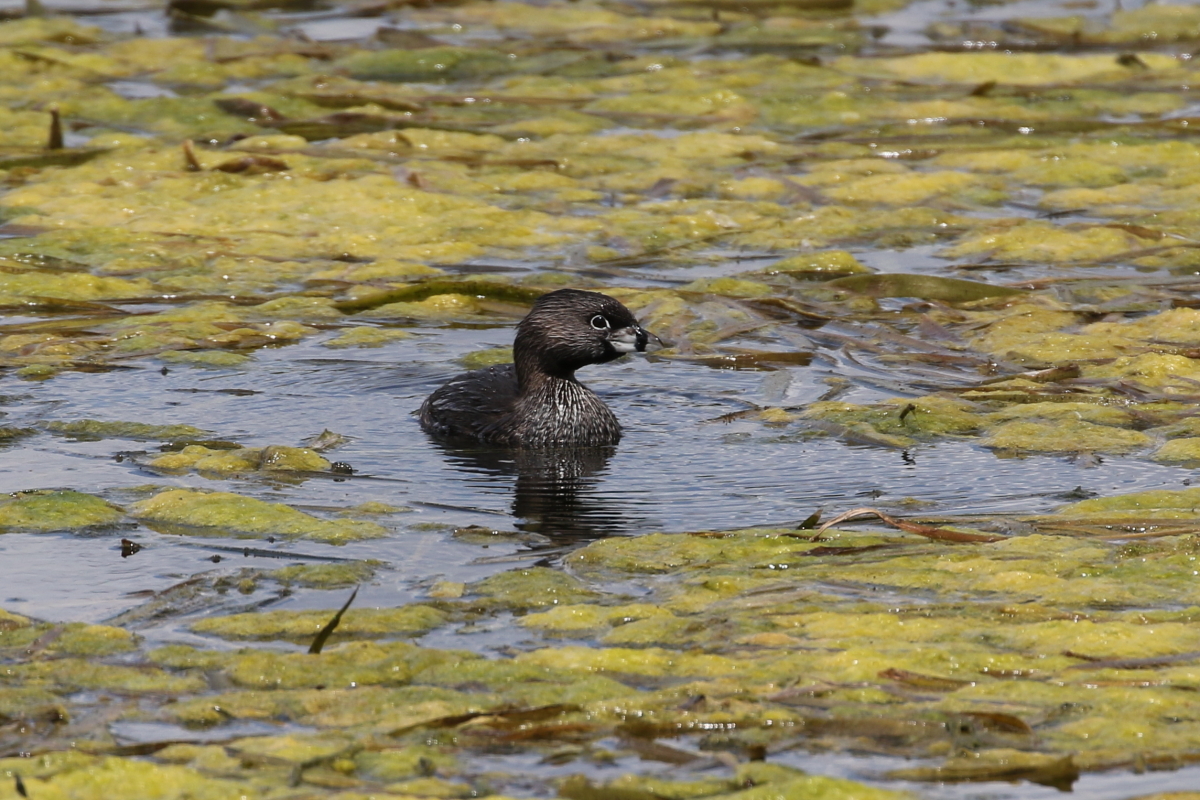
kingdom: Animalia
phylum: Chordata
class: Aves
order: Podicipediformes
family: Podicipedidae
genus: Podilymbus
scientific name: Podilymbus podiceps
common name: Pied-billed grebe
